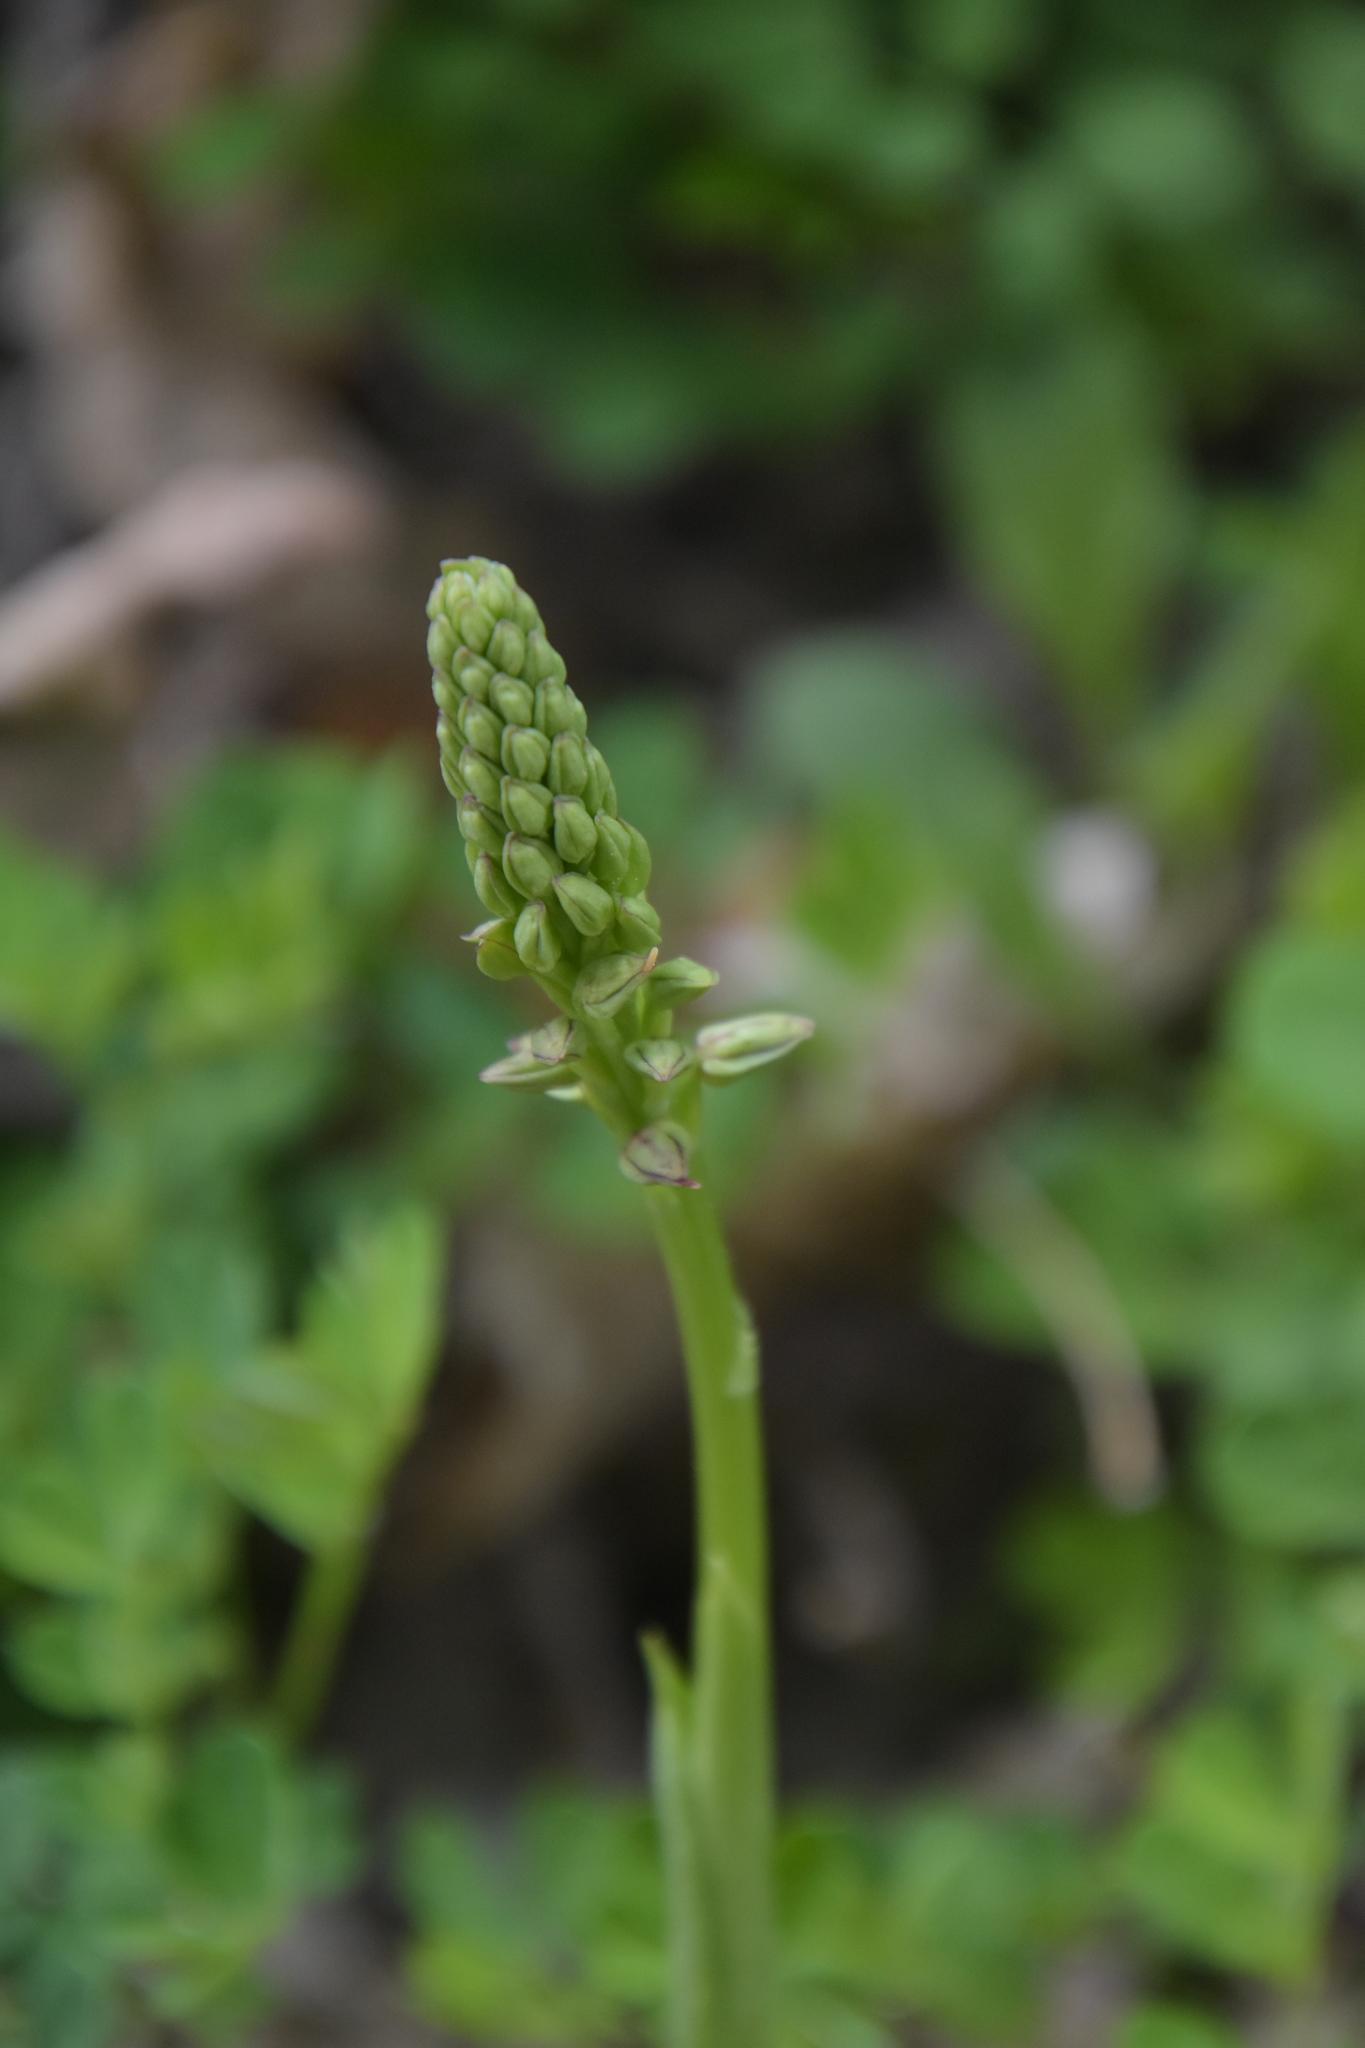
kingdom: Plantae
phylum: Tracheophyta
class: Liliopsida
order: Asparagales
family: Orchidaceae
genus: Orchis
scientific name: Orchis anthropophora
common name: Man orchid
